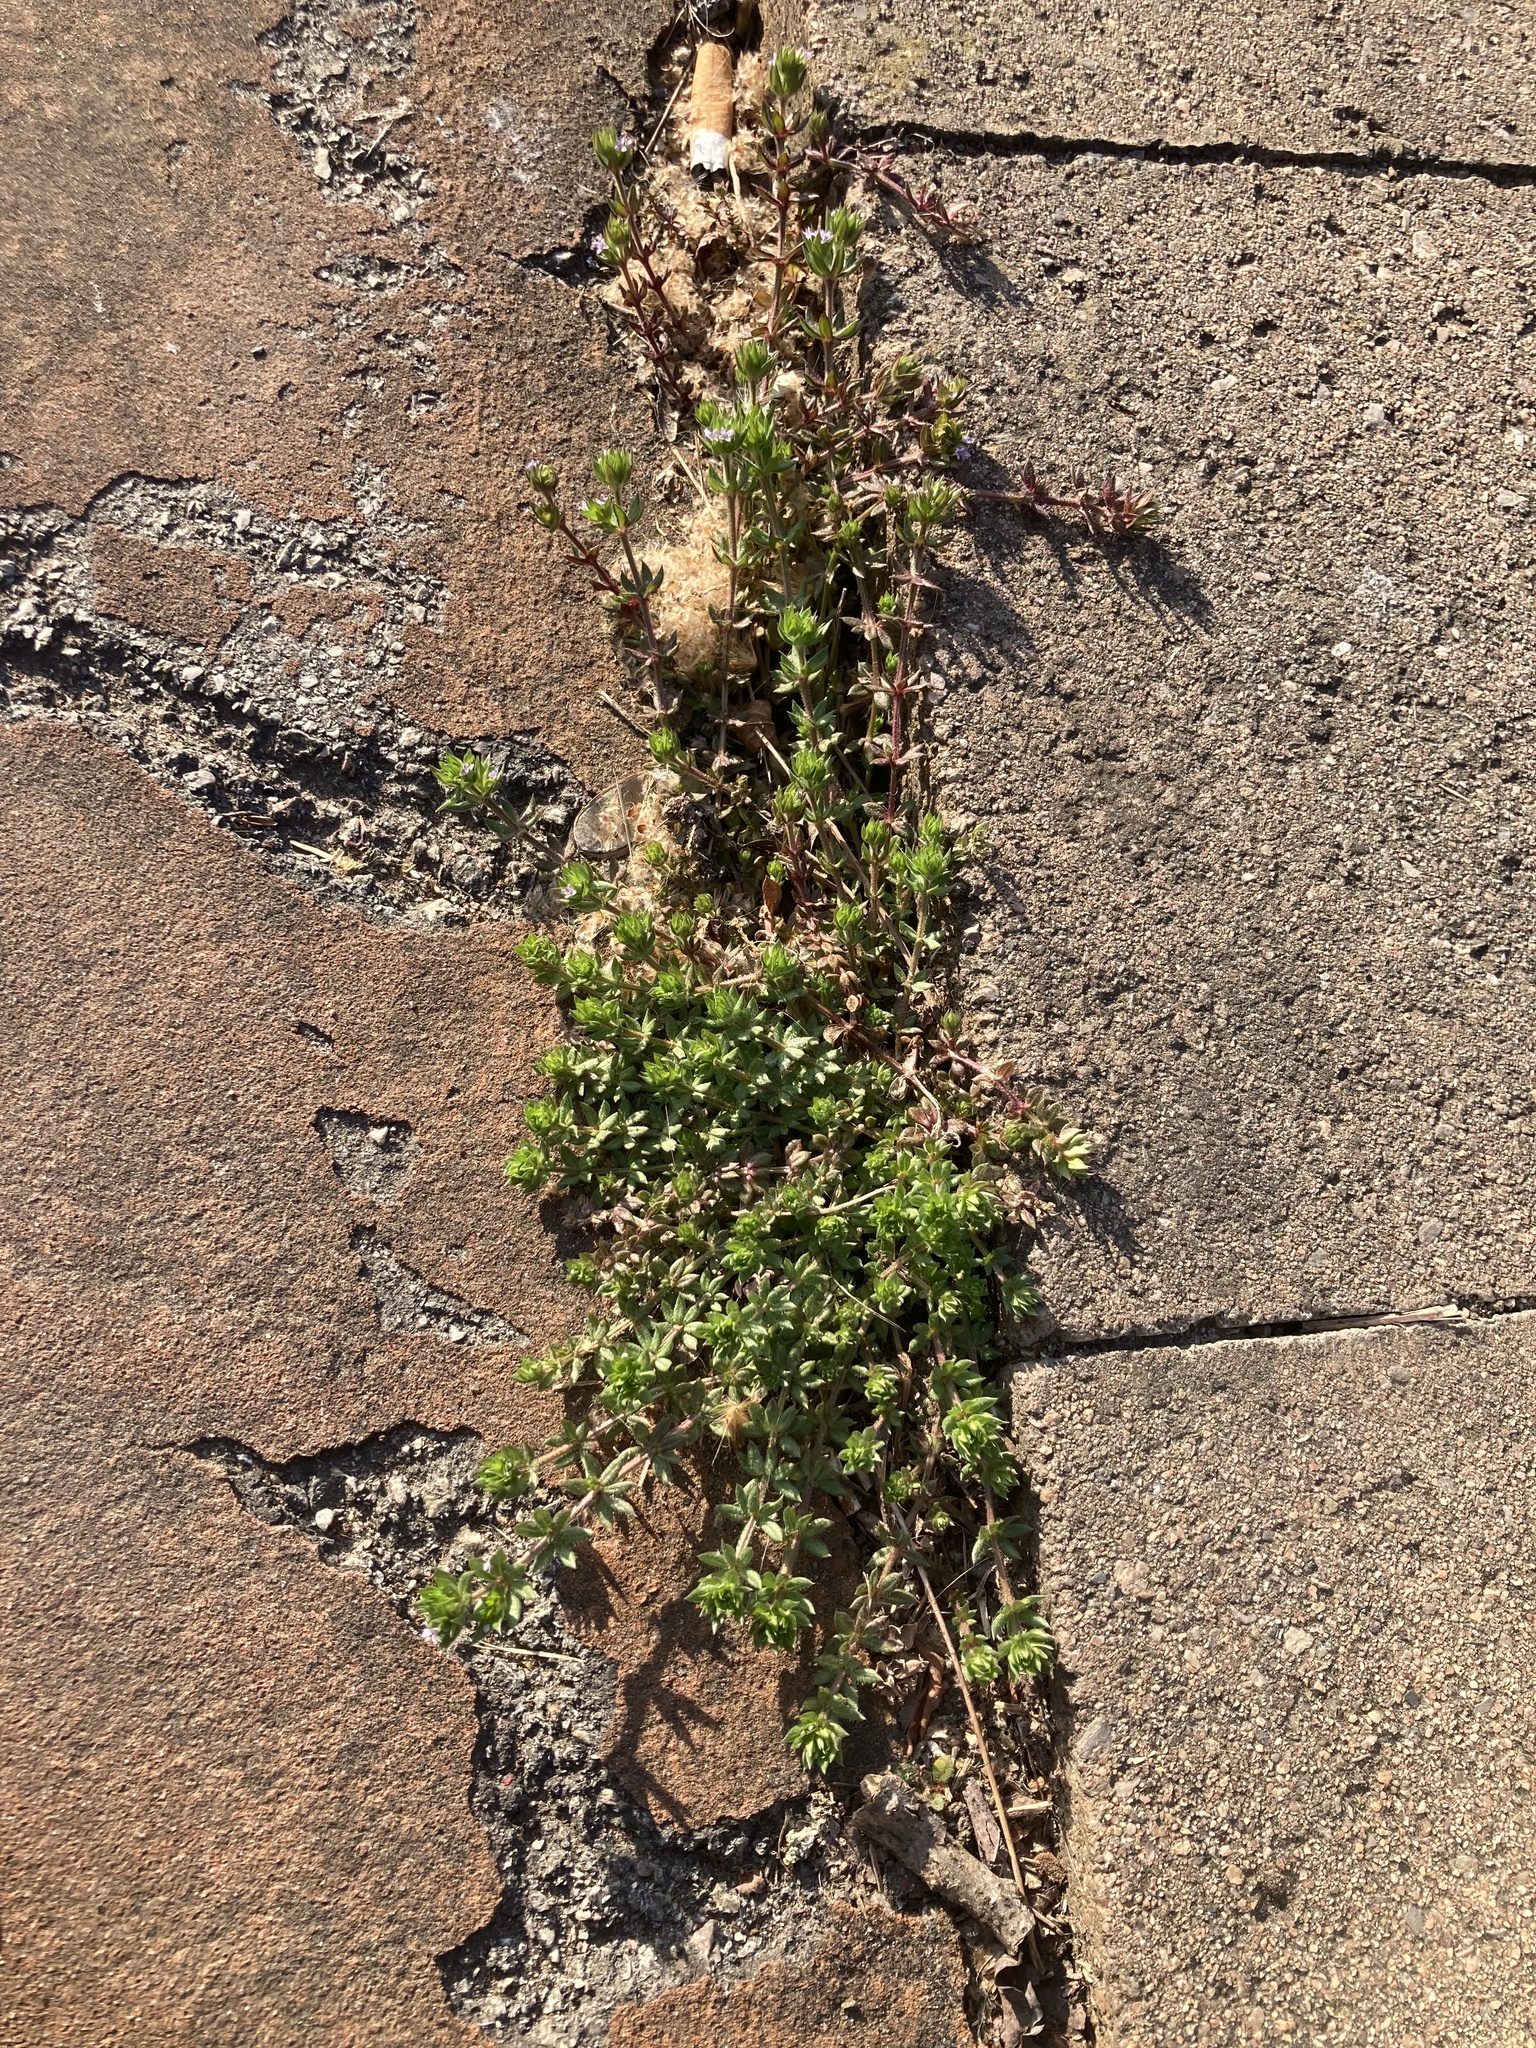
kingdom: Plantae
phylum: Tracheophyta
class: Magnoliopsida
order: Gentianales
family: Rubiaceae
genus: Sherardia
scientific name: Sherardia arvensis
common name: Field madder
